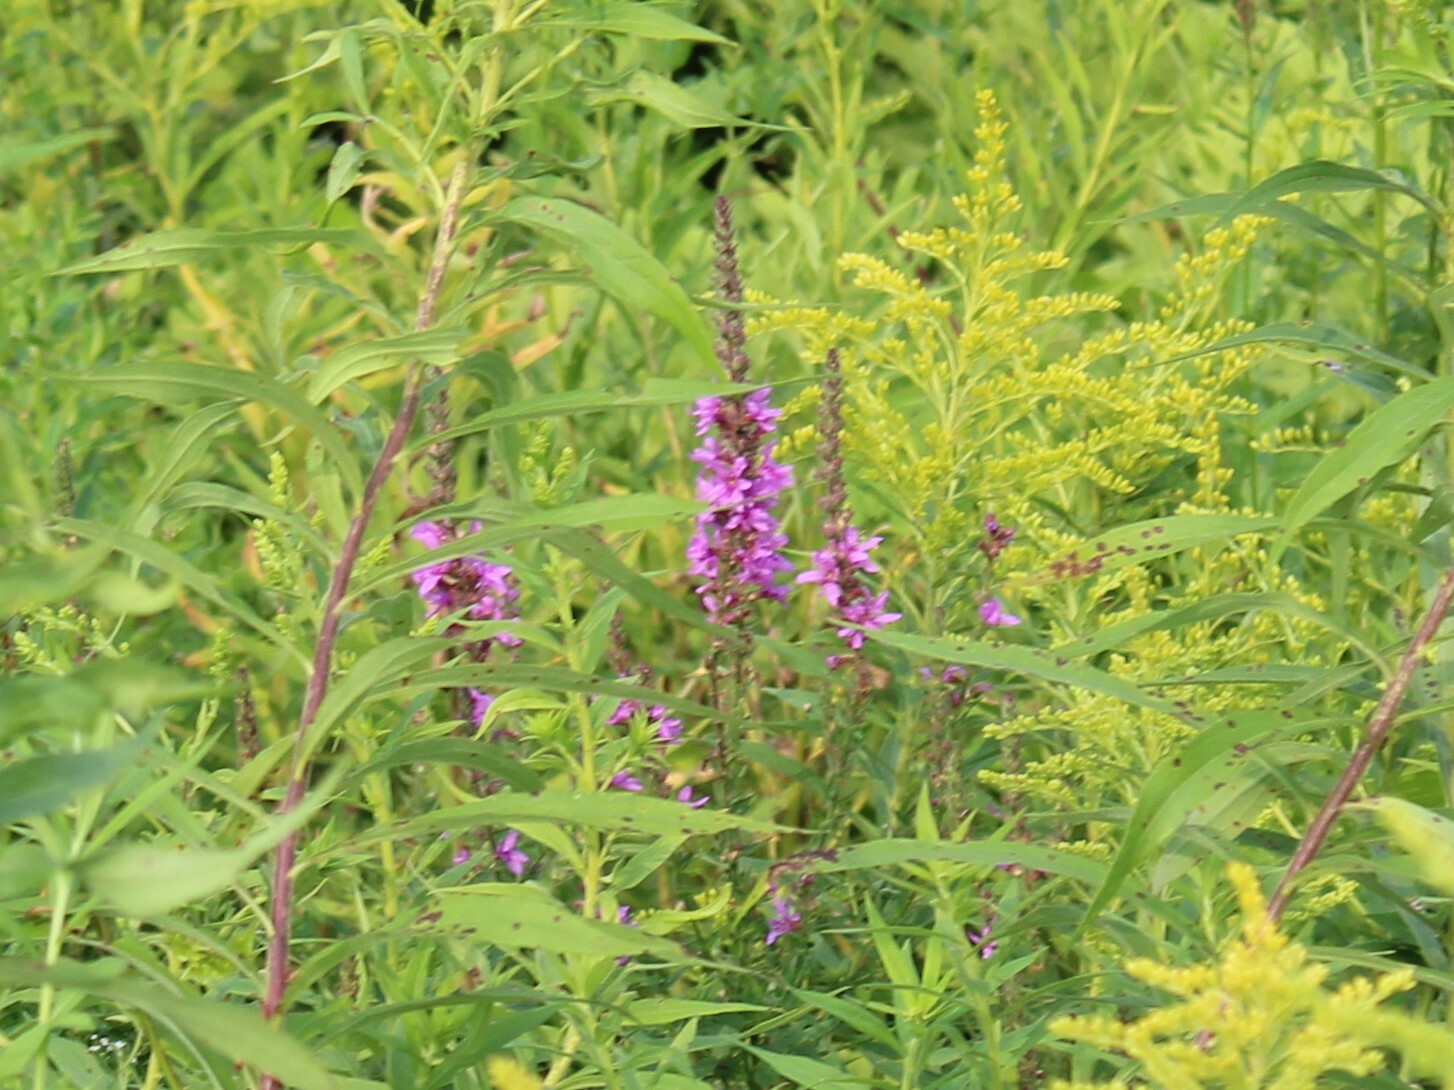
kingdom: Plantae
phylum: Tracheophyta
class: Magnoliopsida
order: Myrtales
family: Lythraceae
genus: Lythrum
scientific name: Lythrum salicaria
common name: Purple loosestrife
